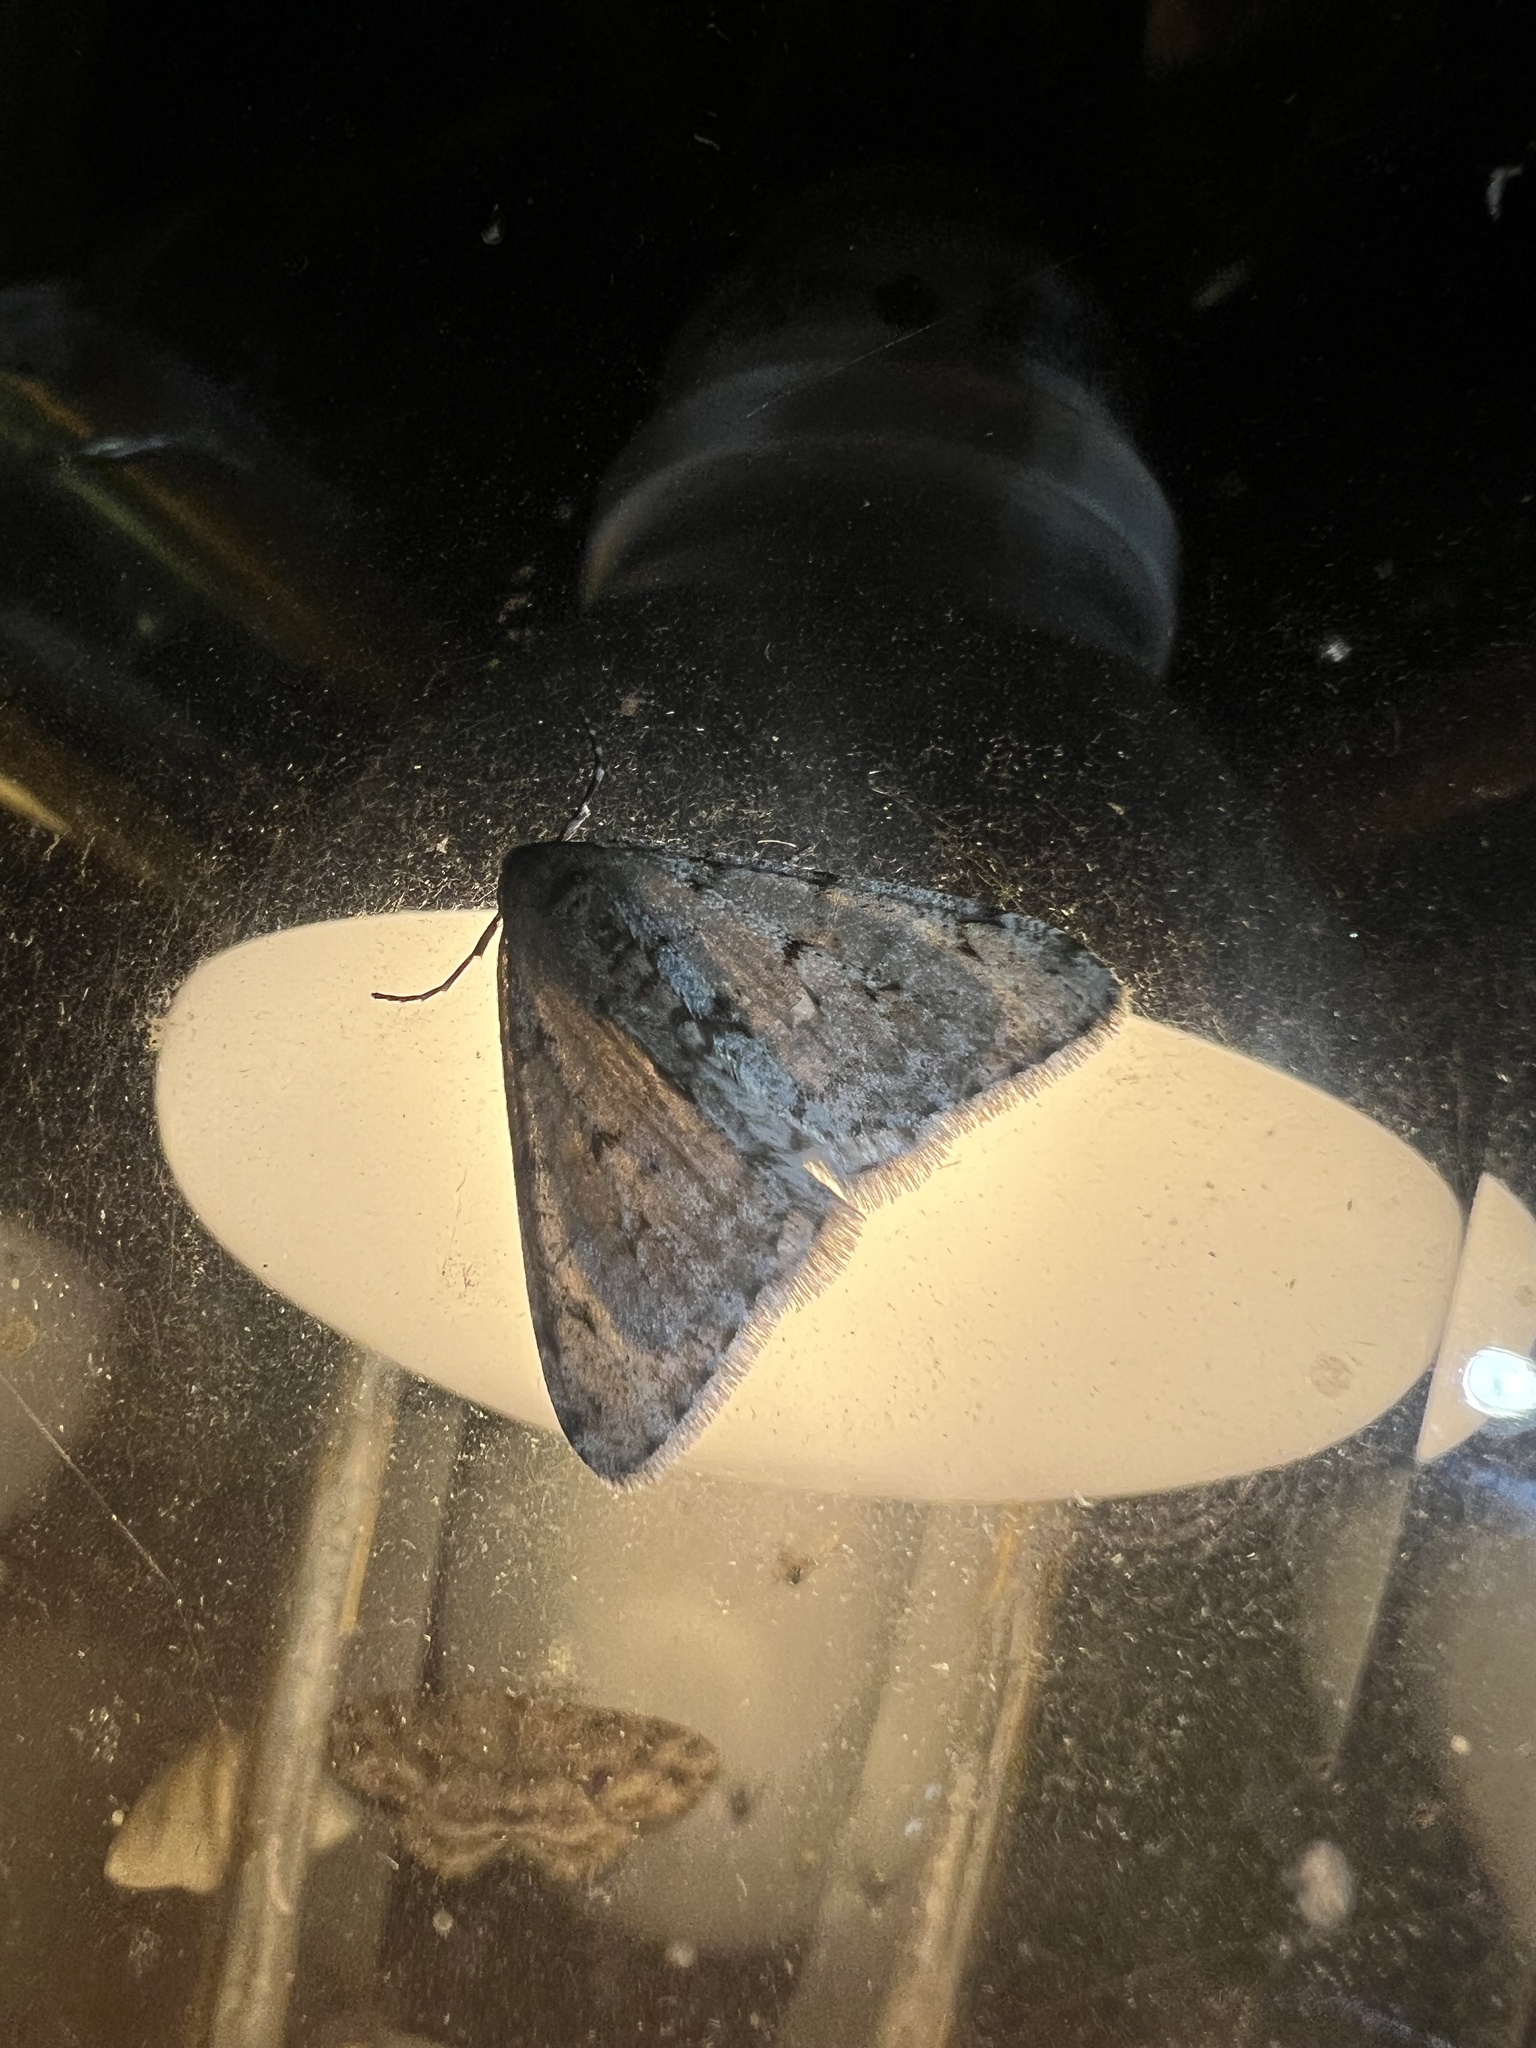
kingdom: Animalia
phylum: Arthropoda
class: Insecta
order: Lepidoptera
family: Geometridae
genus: Phigalia
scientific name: Phigalia strigataria
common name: Small phigalia
